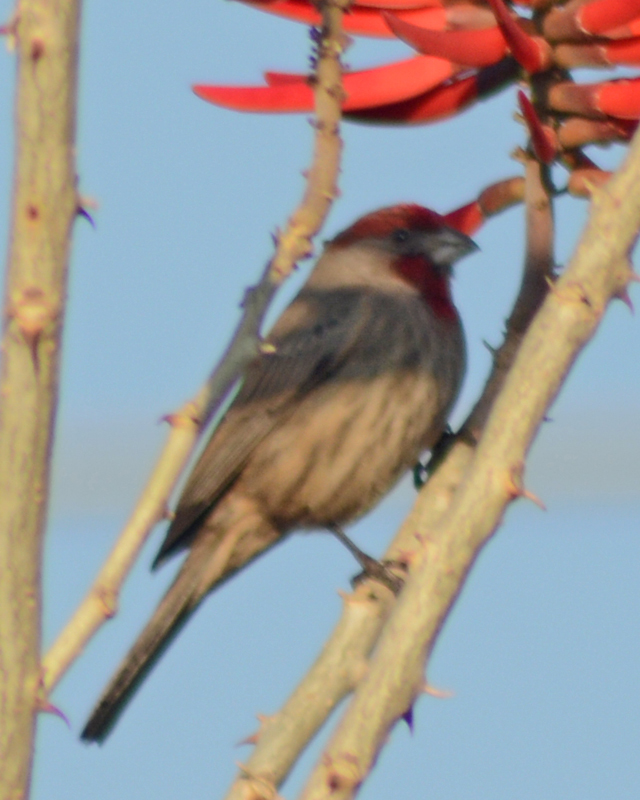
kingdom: Animalia
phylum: Chordata
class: Aves
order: Passeriformes
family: Fringillidae
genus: Haemorhous
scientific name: Haemorhous mexicanus
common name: House finch
